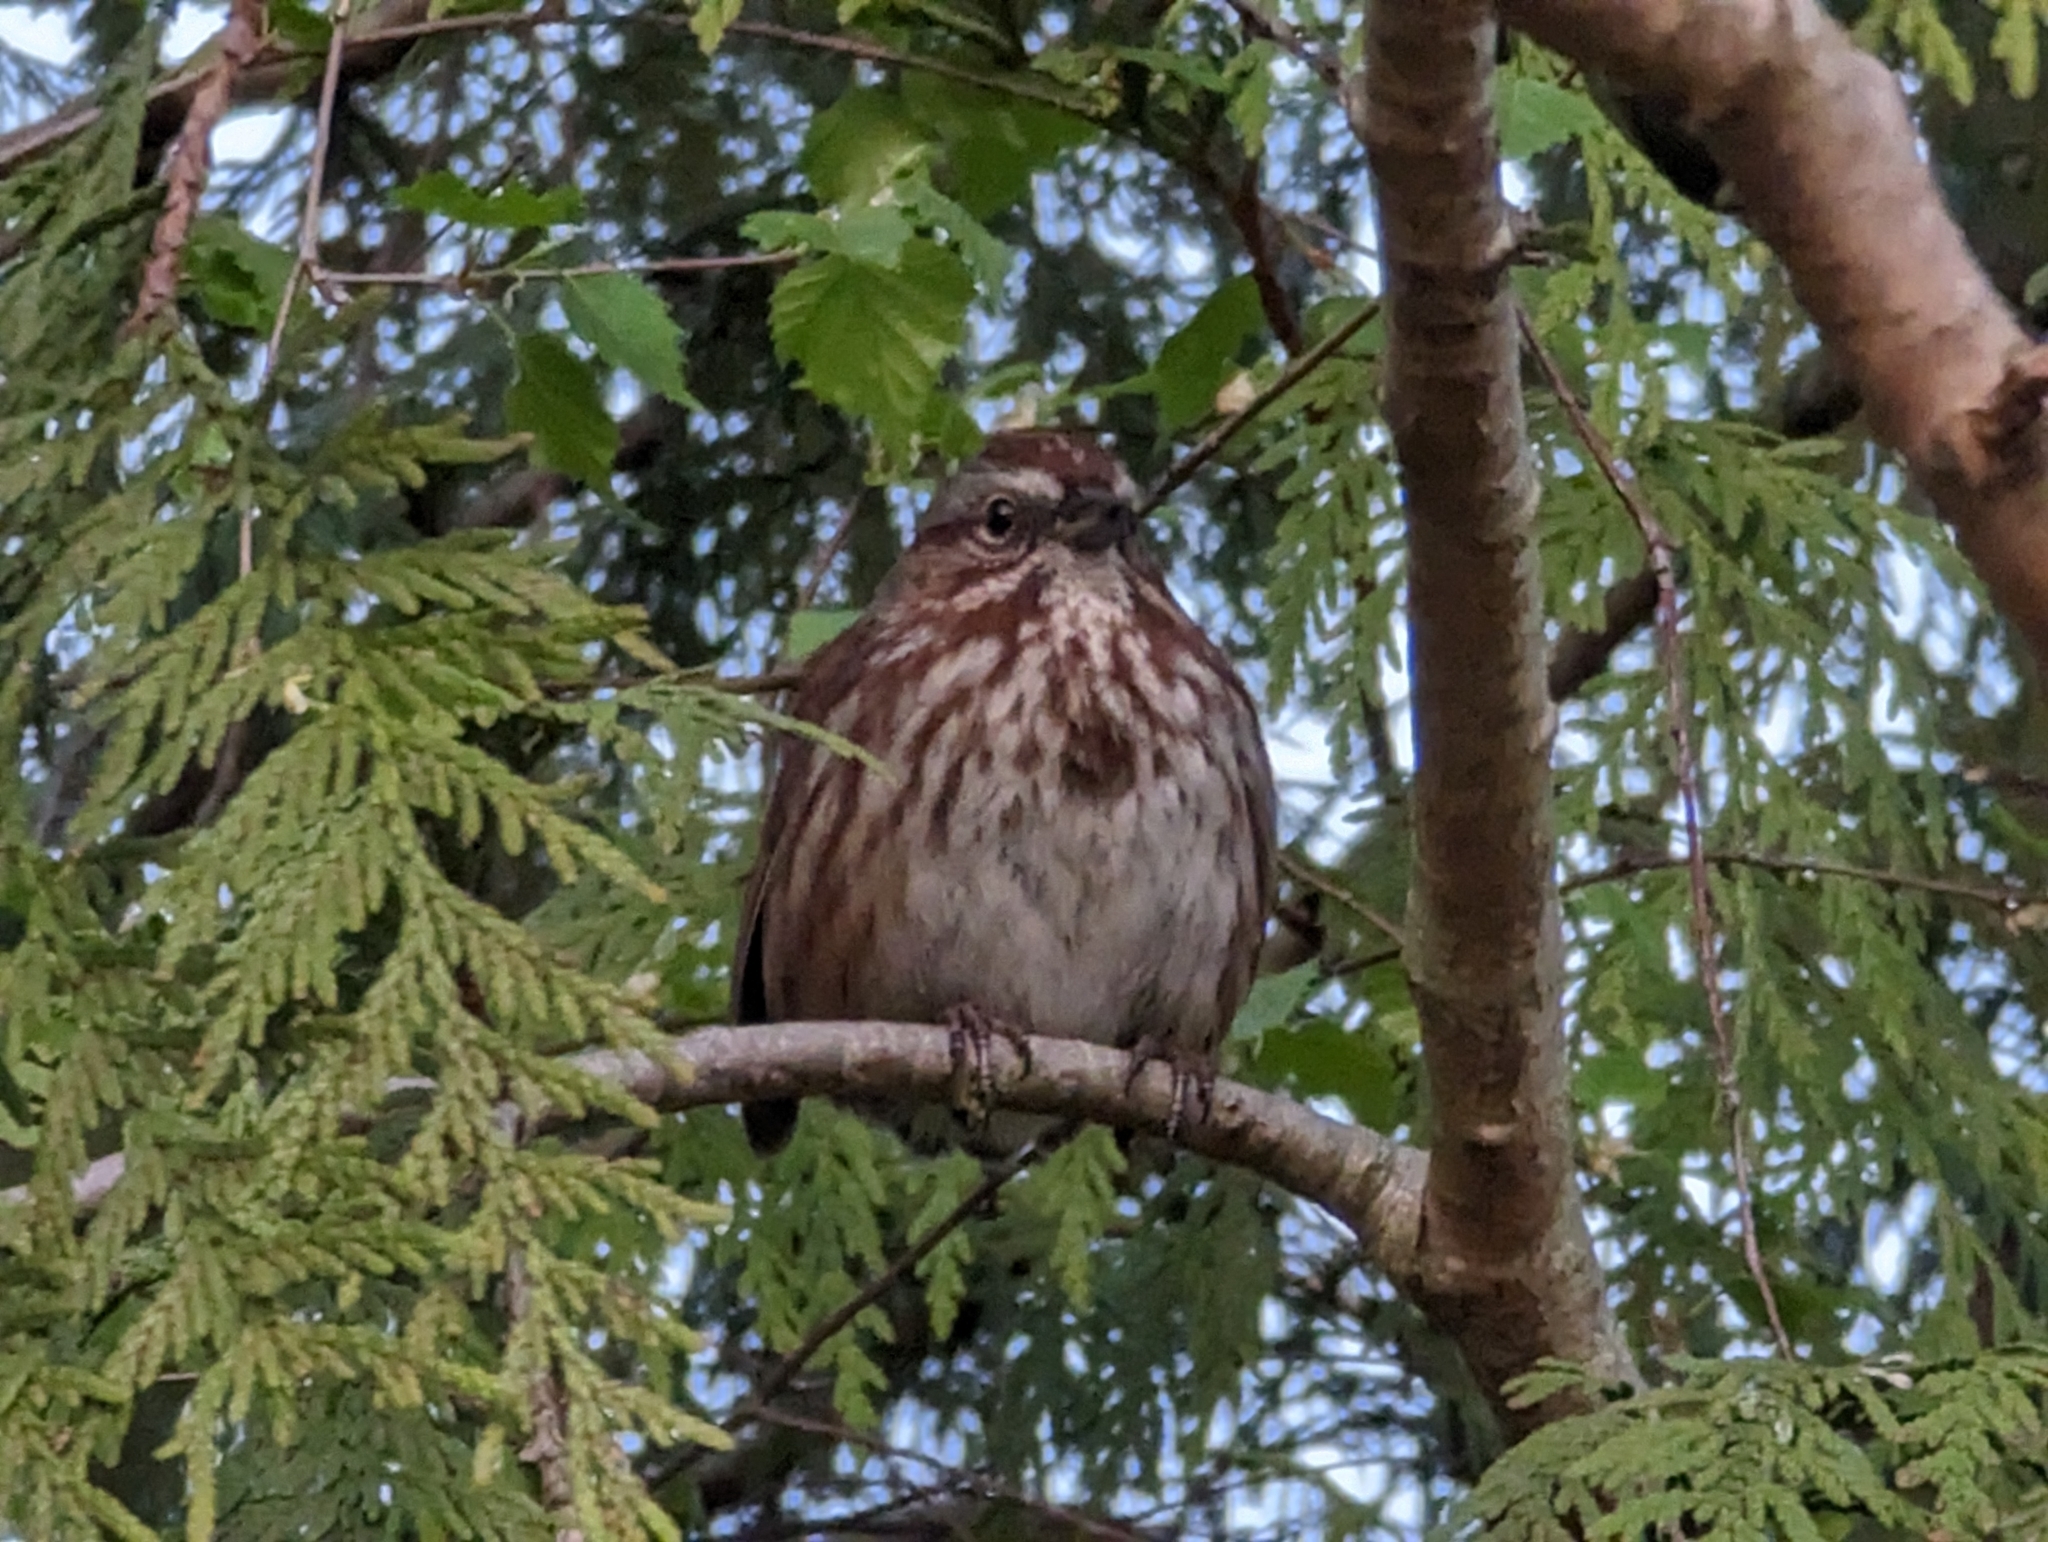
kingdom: Animalia
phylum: Chordata
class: Aves
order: Passeriformes
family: Passerellidae
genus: Melospiza
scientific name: Melospiza melodia
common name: Song sparrow
